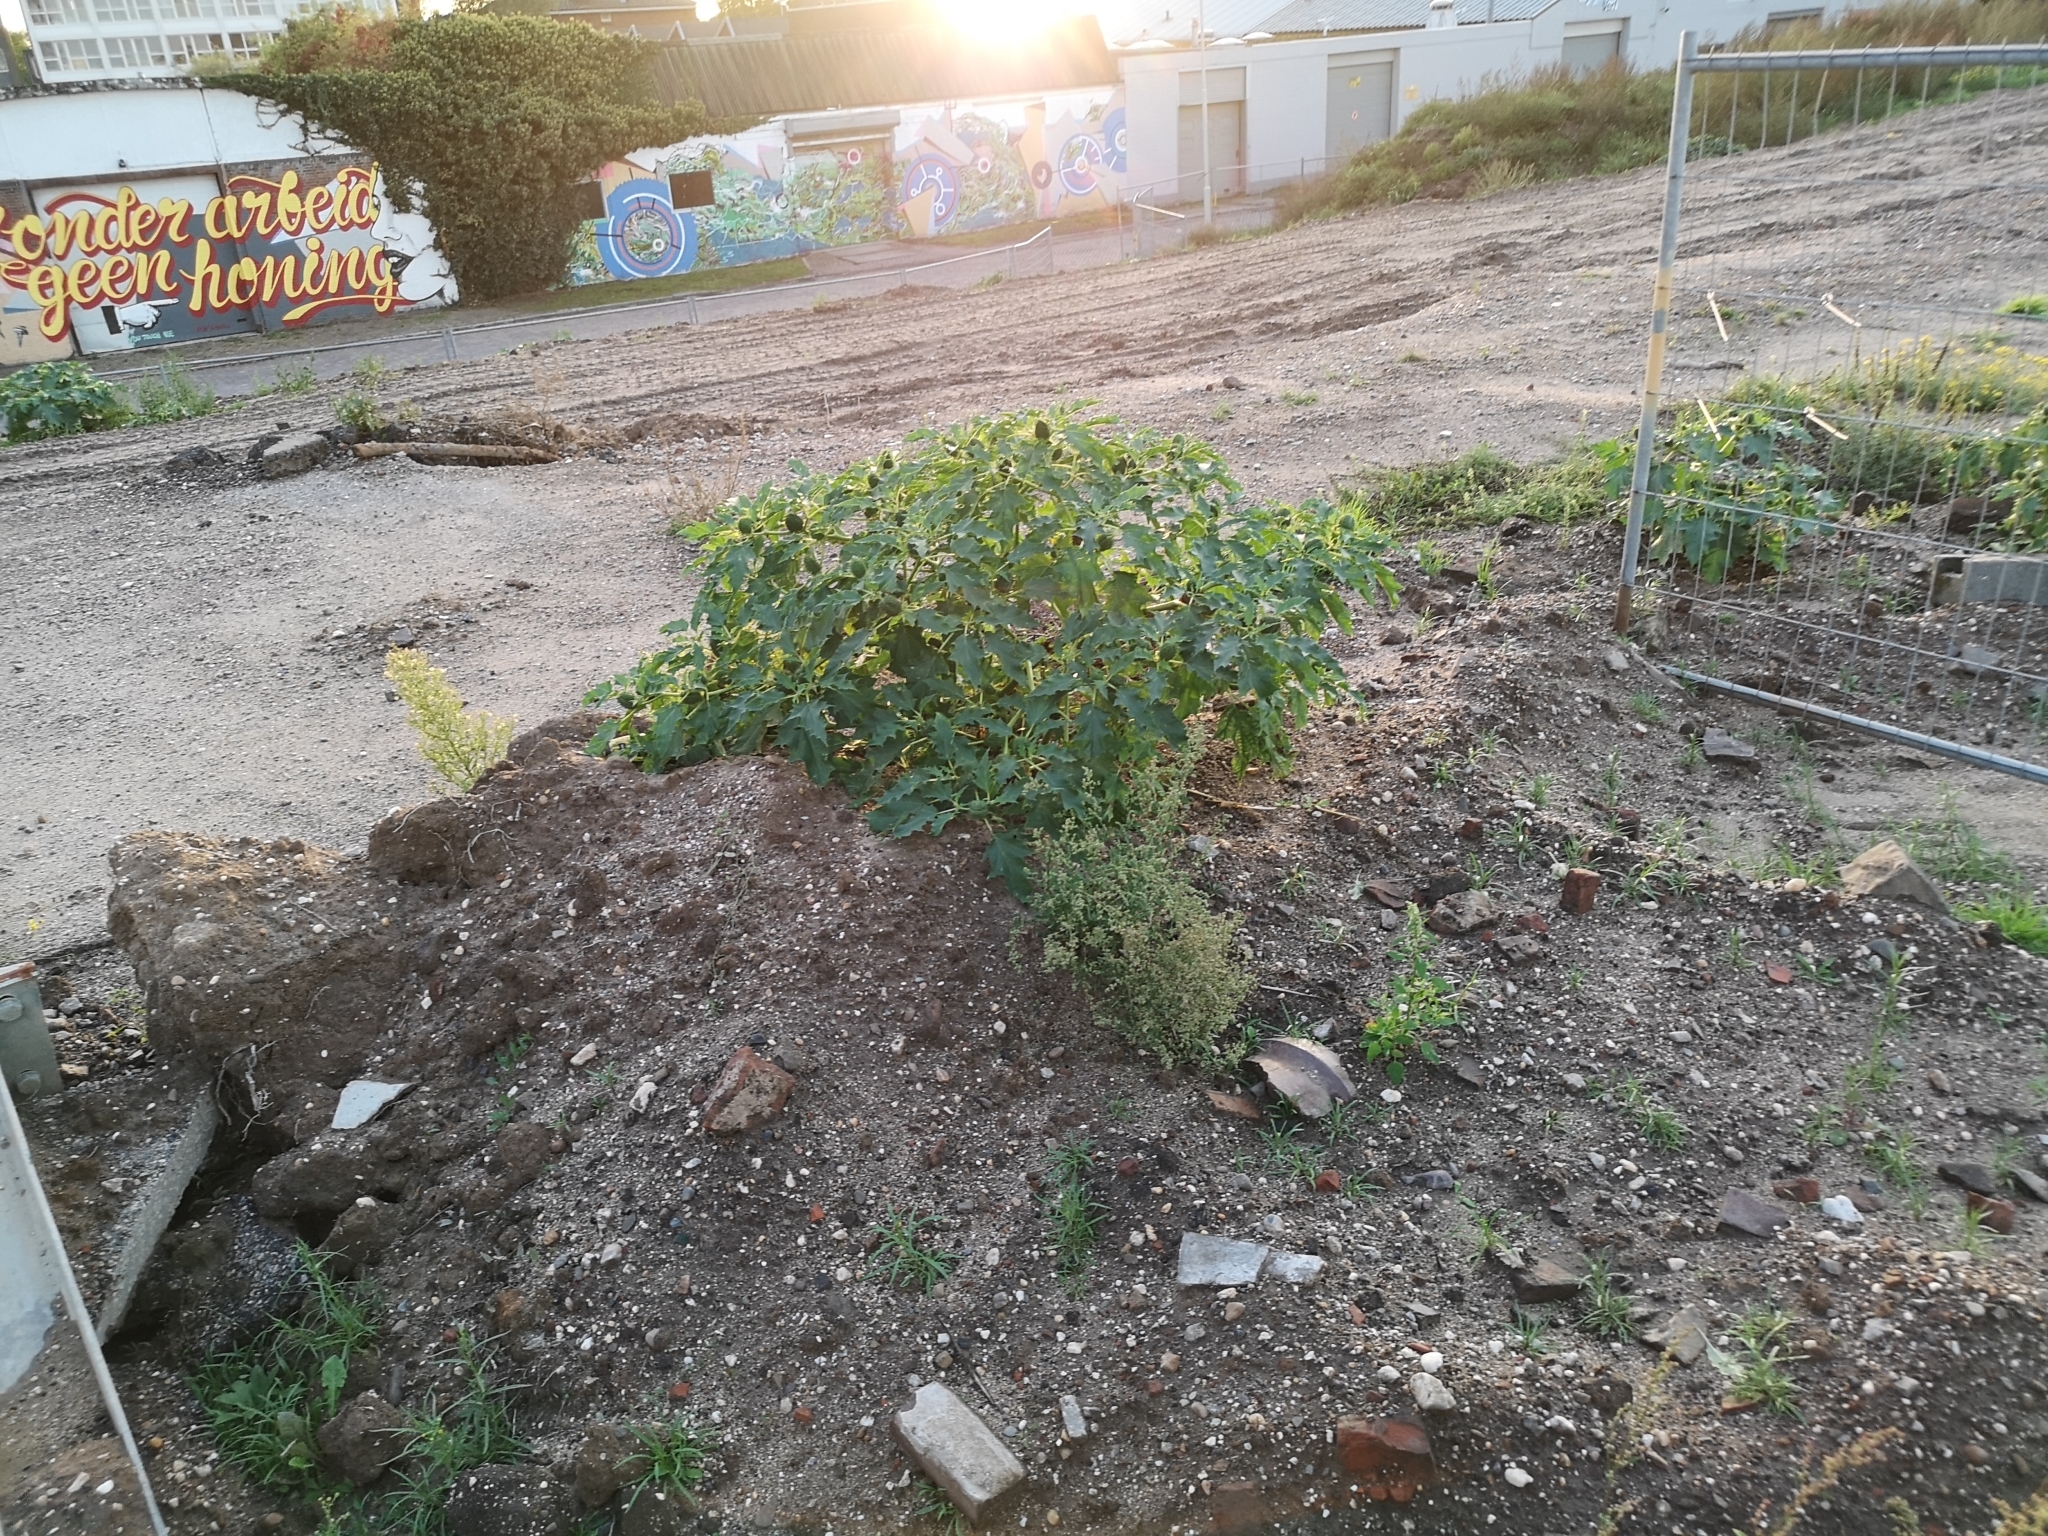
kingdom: Plantae
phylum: Tracheophyta
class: Magnoliopsida
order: Solanales
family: Solanaceae
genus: Datura
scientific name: Datura stramonium
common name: Thorn-apple
